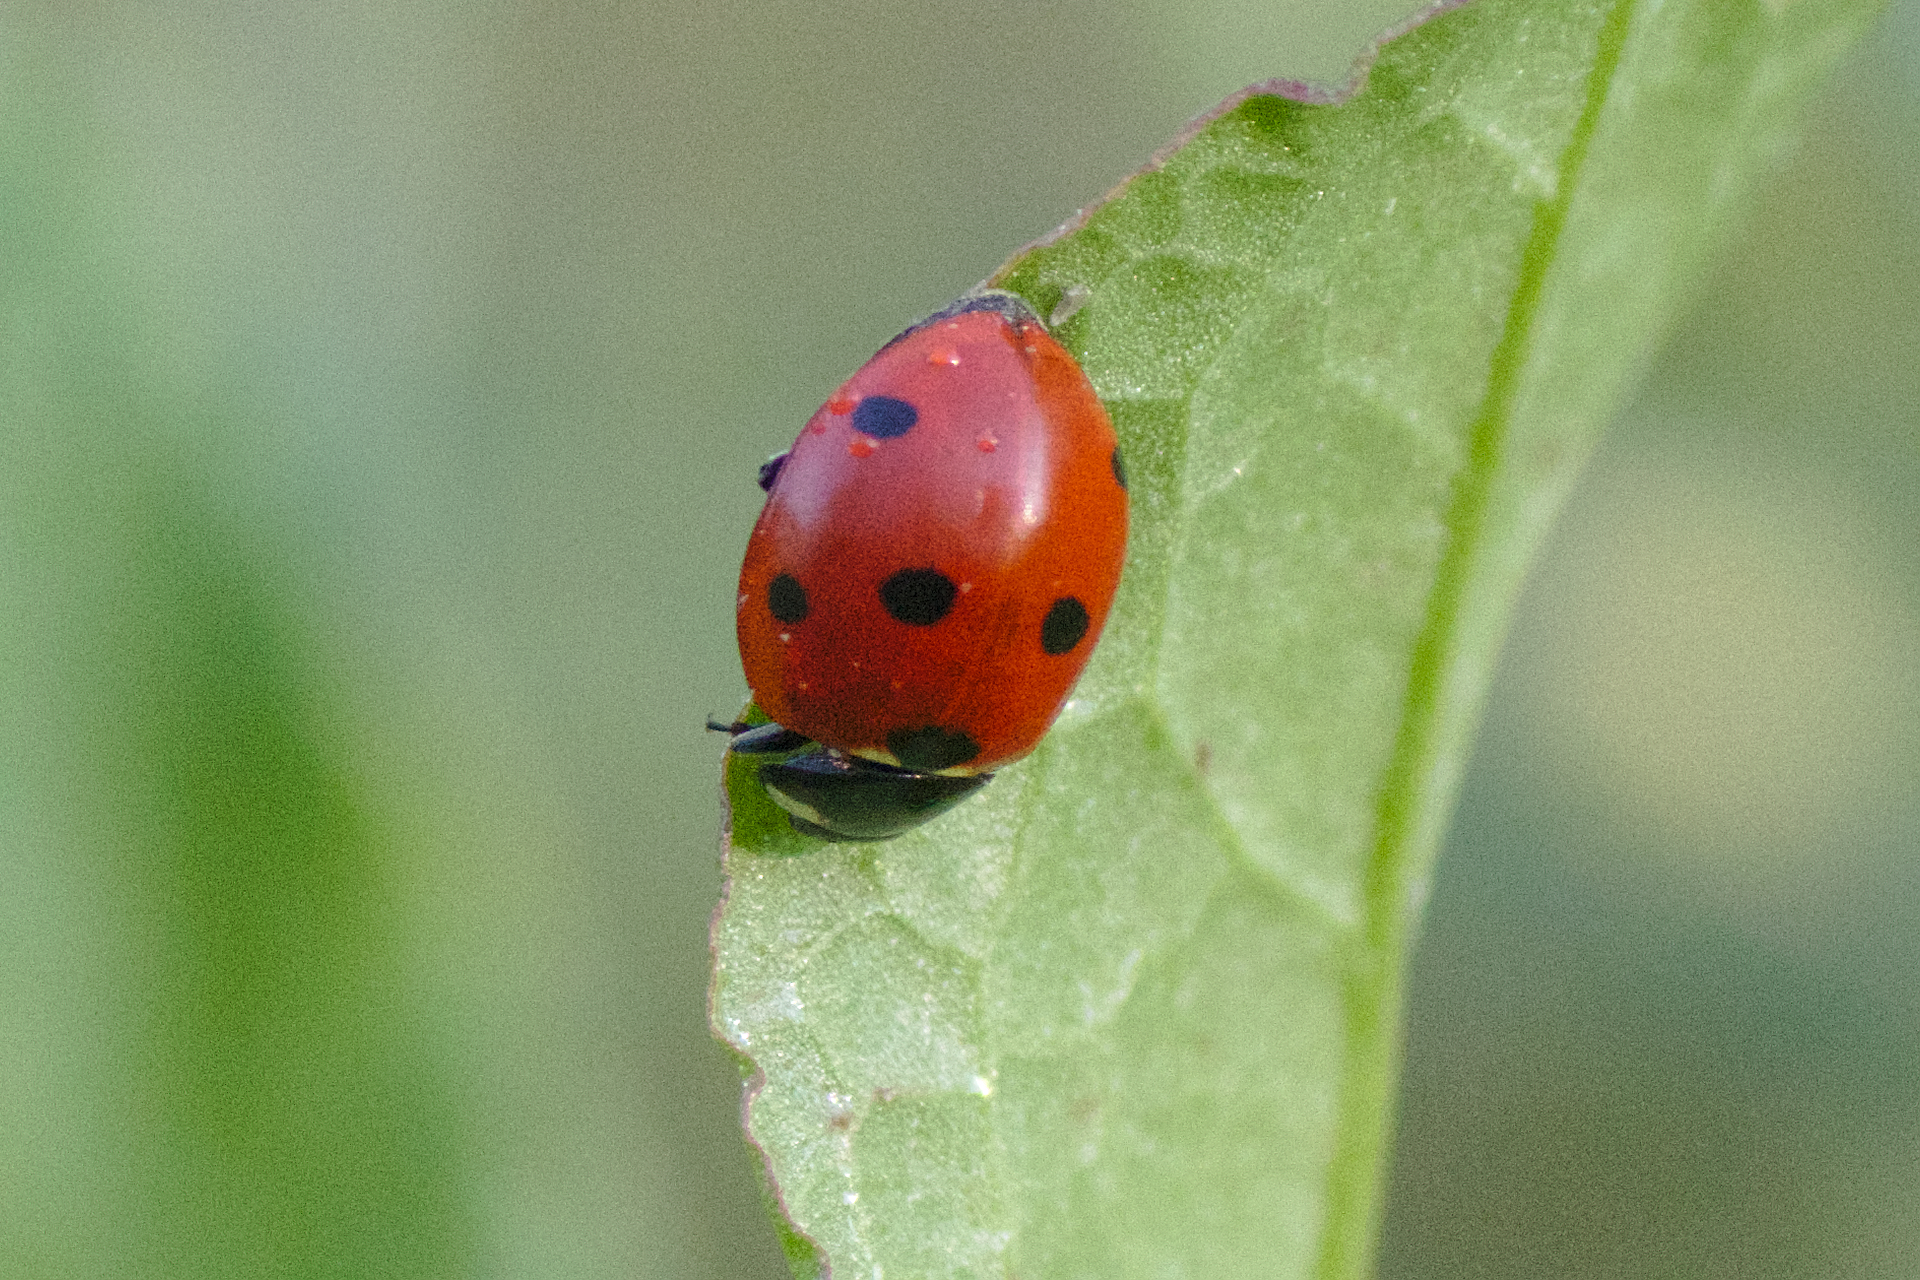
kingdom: Animalia
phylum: Arthropoda
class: Insecta
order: Coleoptera
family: Coccinellidae
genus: Coccinella
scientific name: Coccinella septempunctata
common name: Sevenspotted lady beetle
